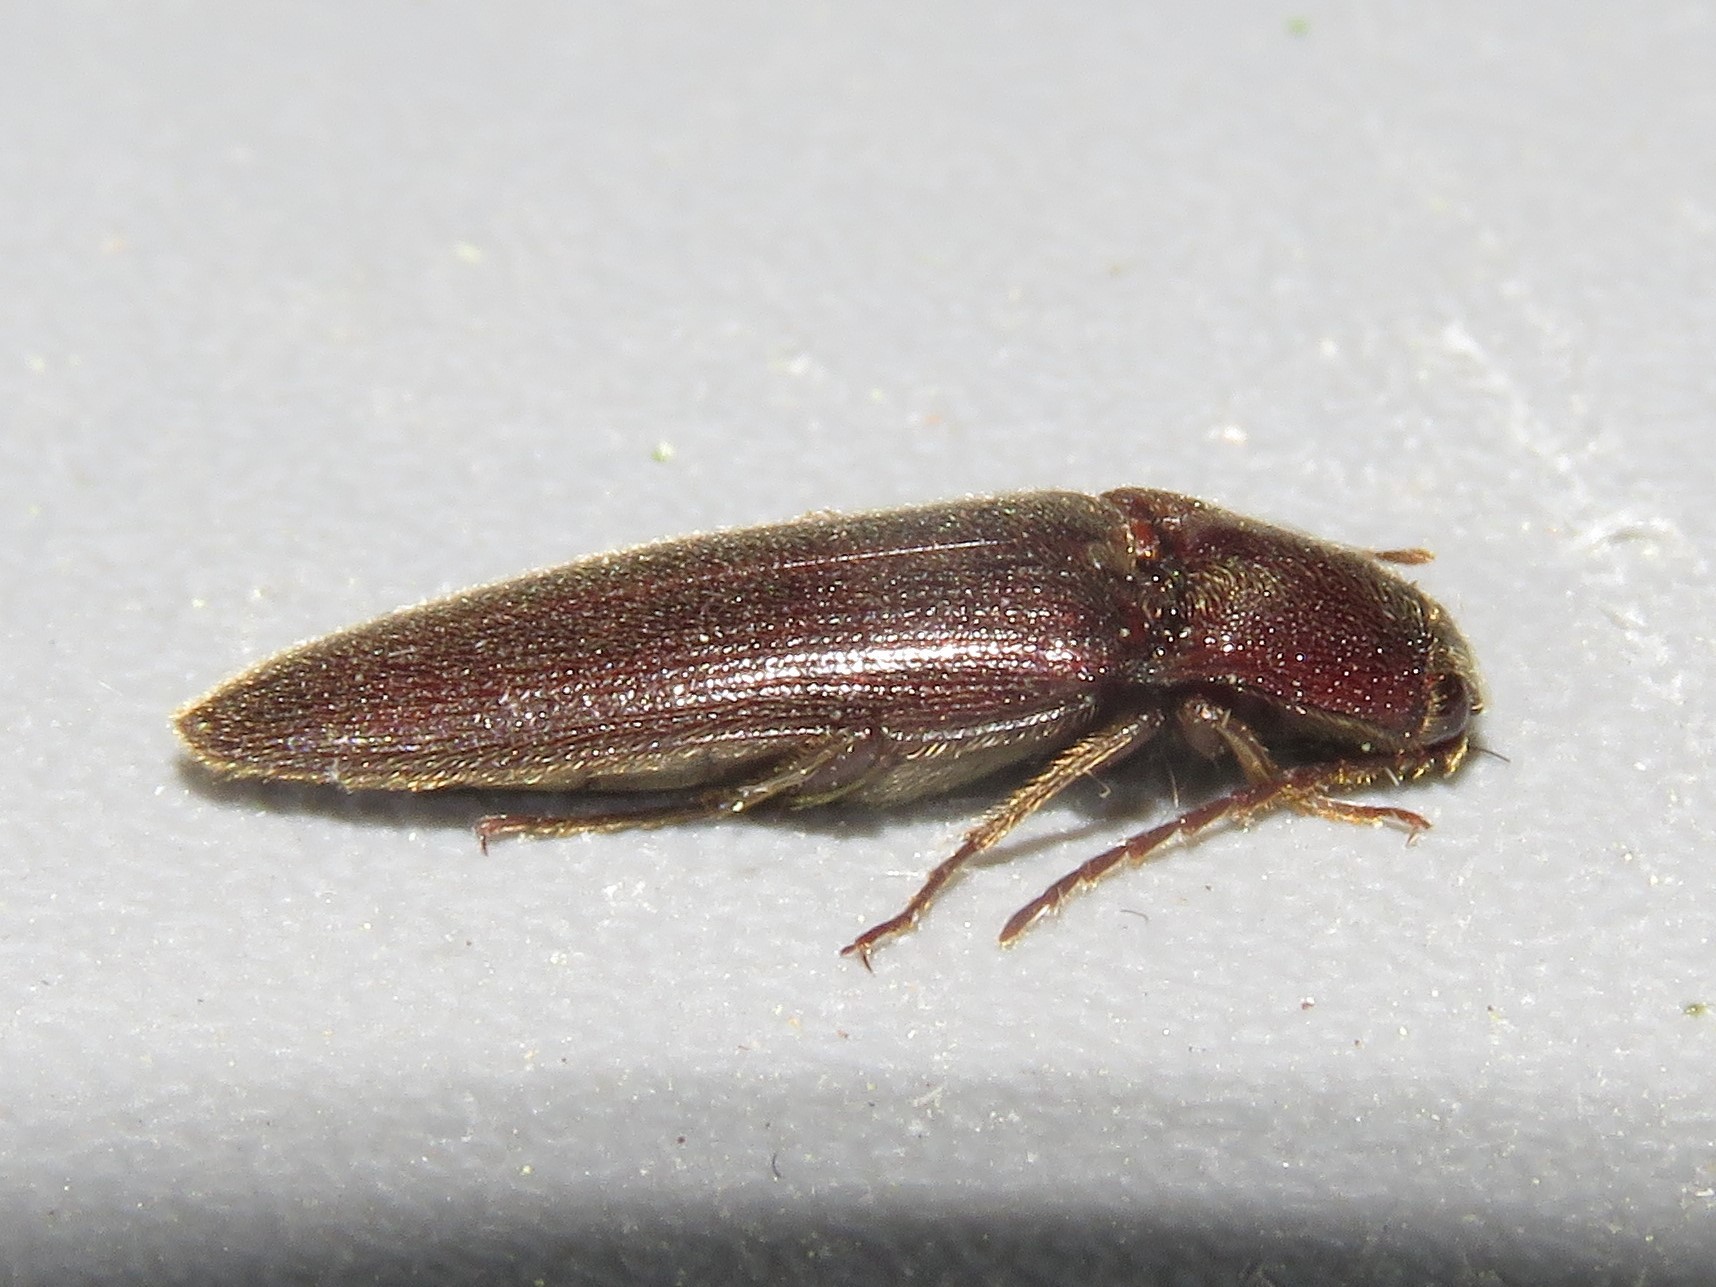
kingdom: Animalia
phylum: Arthropoda
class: Insecta
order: Coleoptera
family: Elateridae
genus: Melanotus
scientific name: Melanotus castanipes
